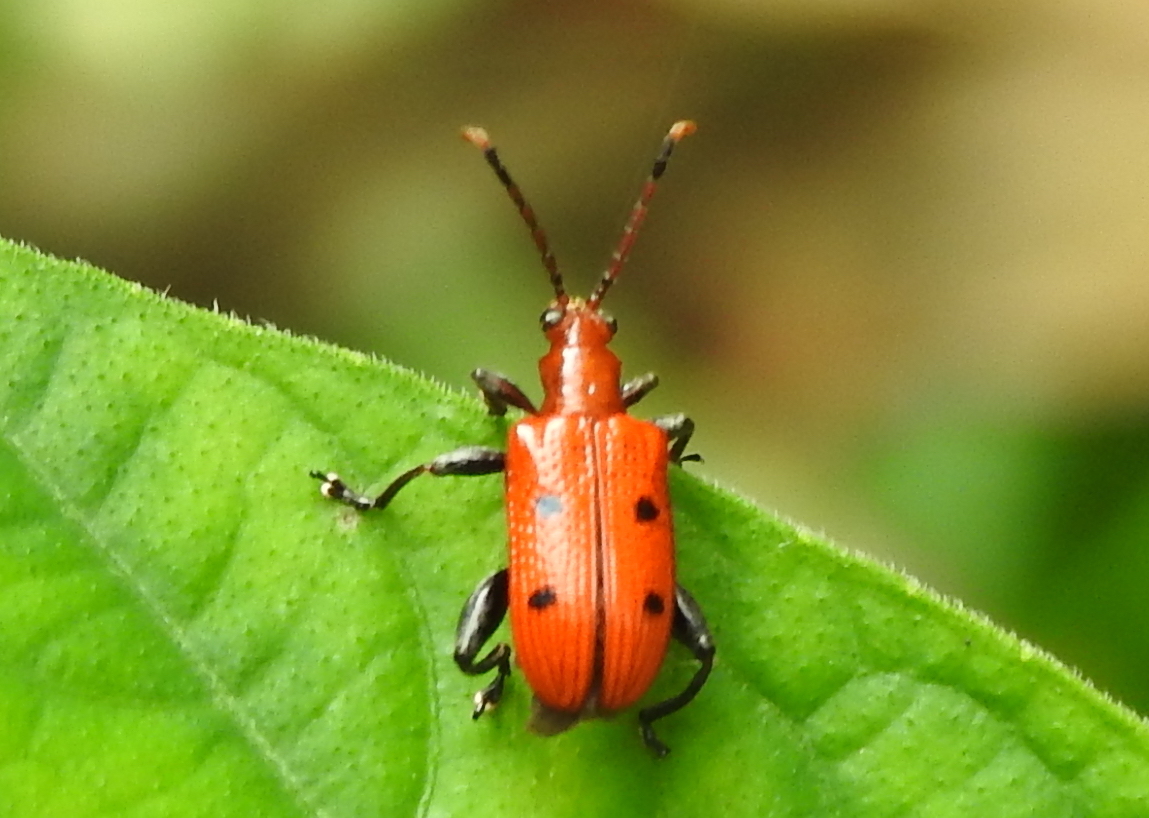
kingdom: Animalia
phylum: Arthropoda
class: Insecta
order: Coleoptera
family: Chrysomelidae
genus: Lema
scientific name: Lema
